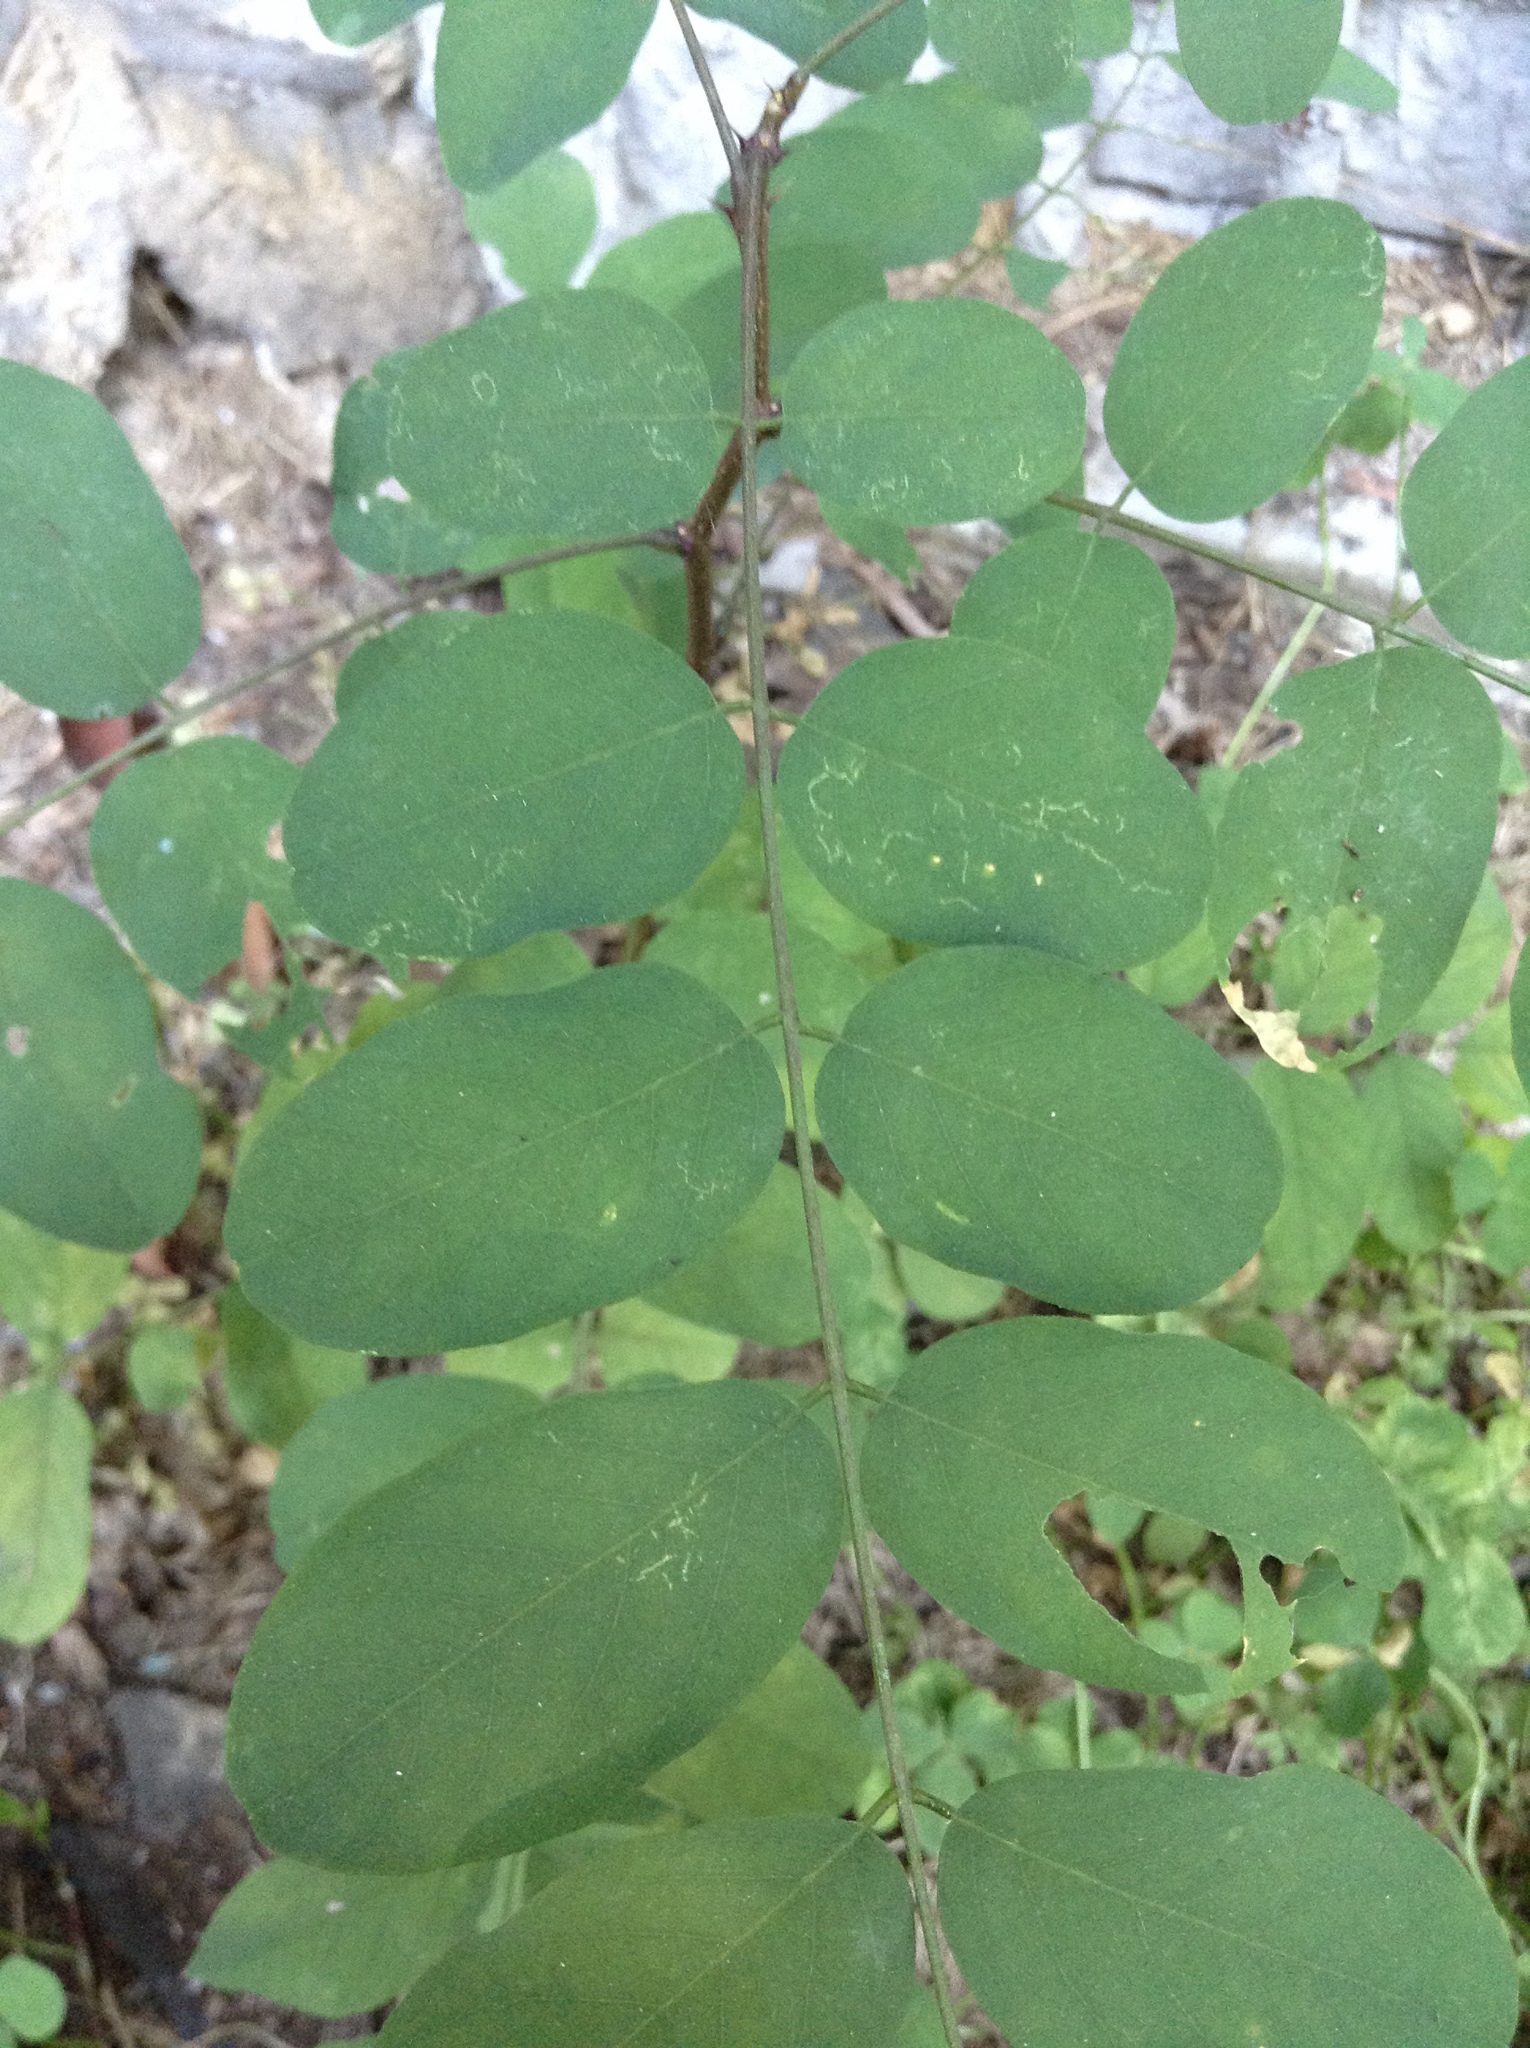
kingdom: Plantae
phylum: Tracheophyta
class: Magnoliopsida
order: Fabales
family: Fabaceae
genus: Robinia
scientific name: Robinia pseudoacacia
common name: Black locust
